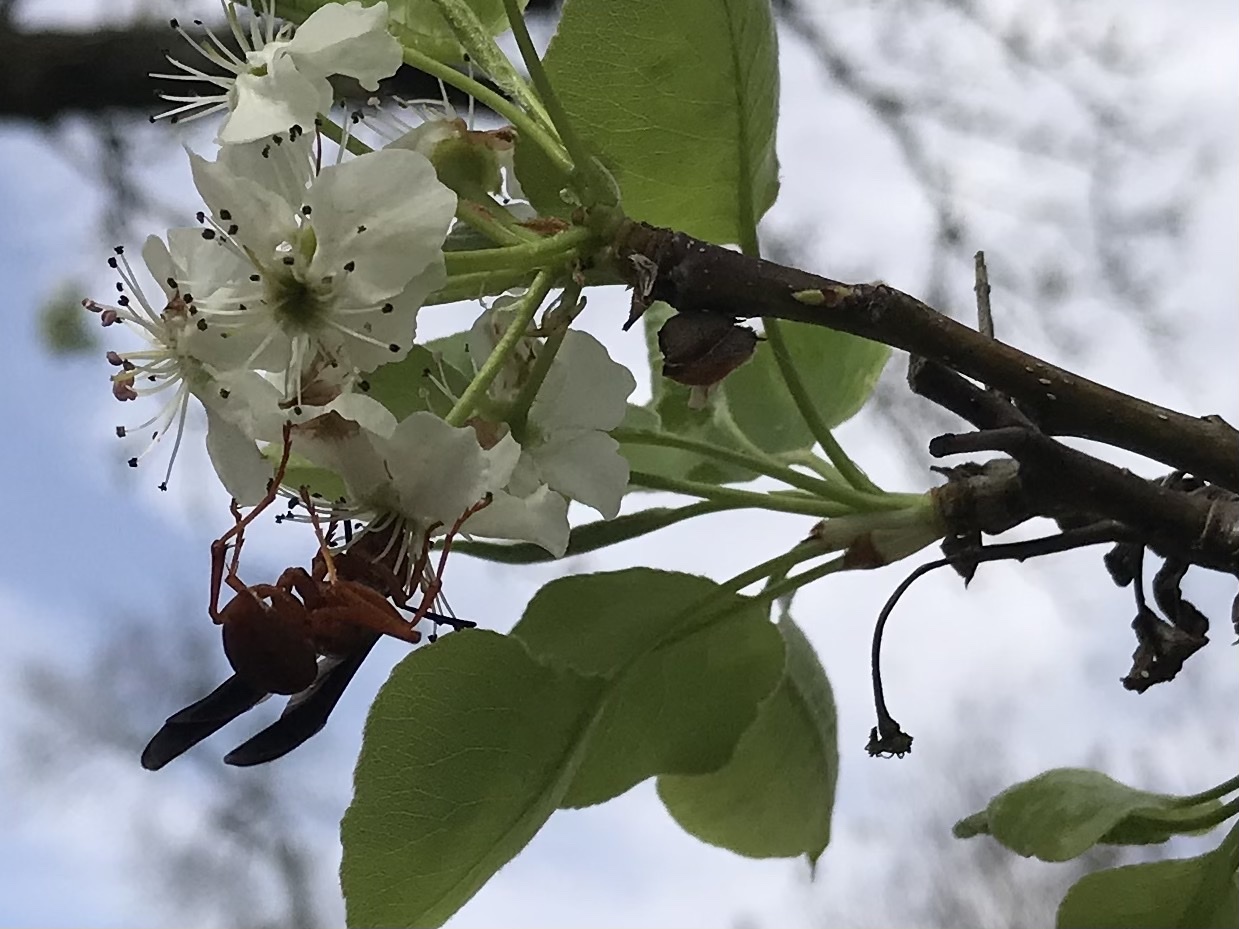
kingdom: Animalia
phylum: Arthropoda
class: Insecta
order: Hymenoptera
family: Eumenidae
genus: Polistes
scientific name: Polistes carolina
